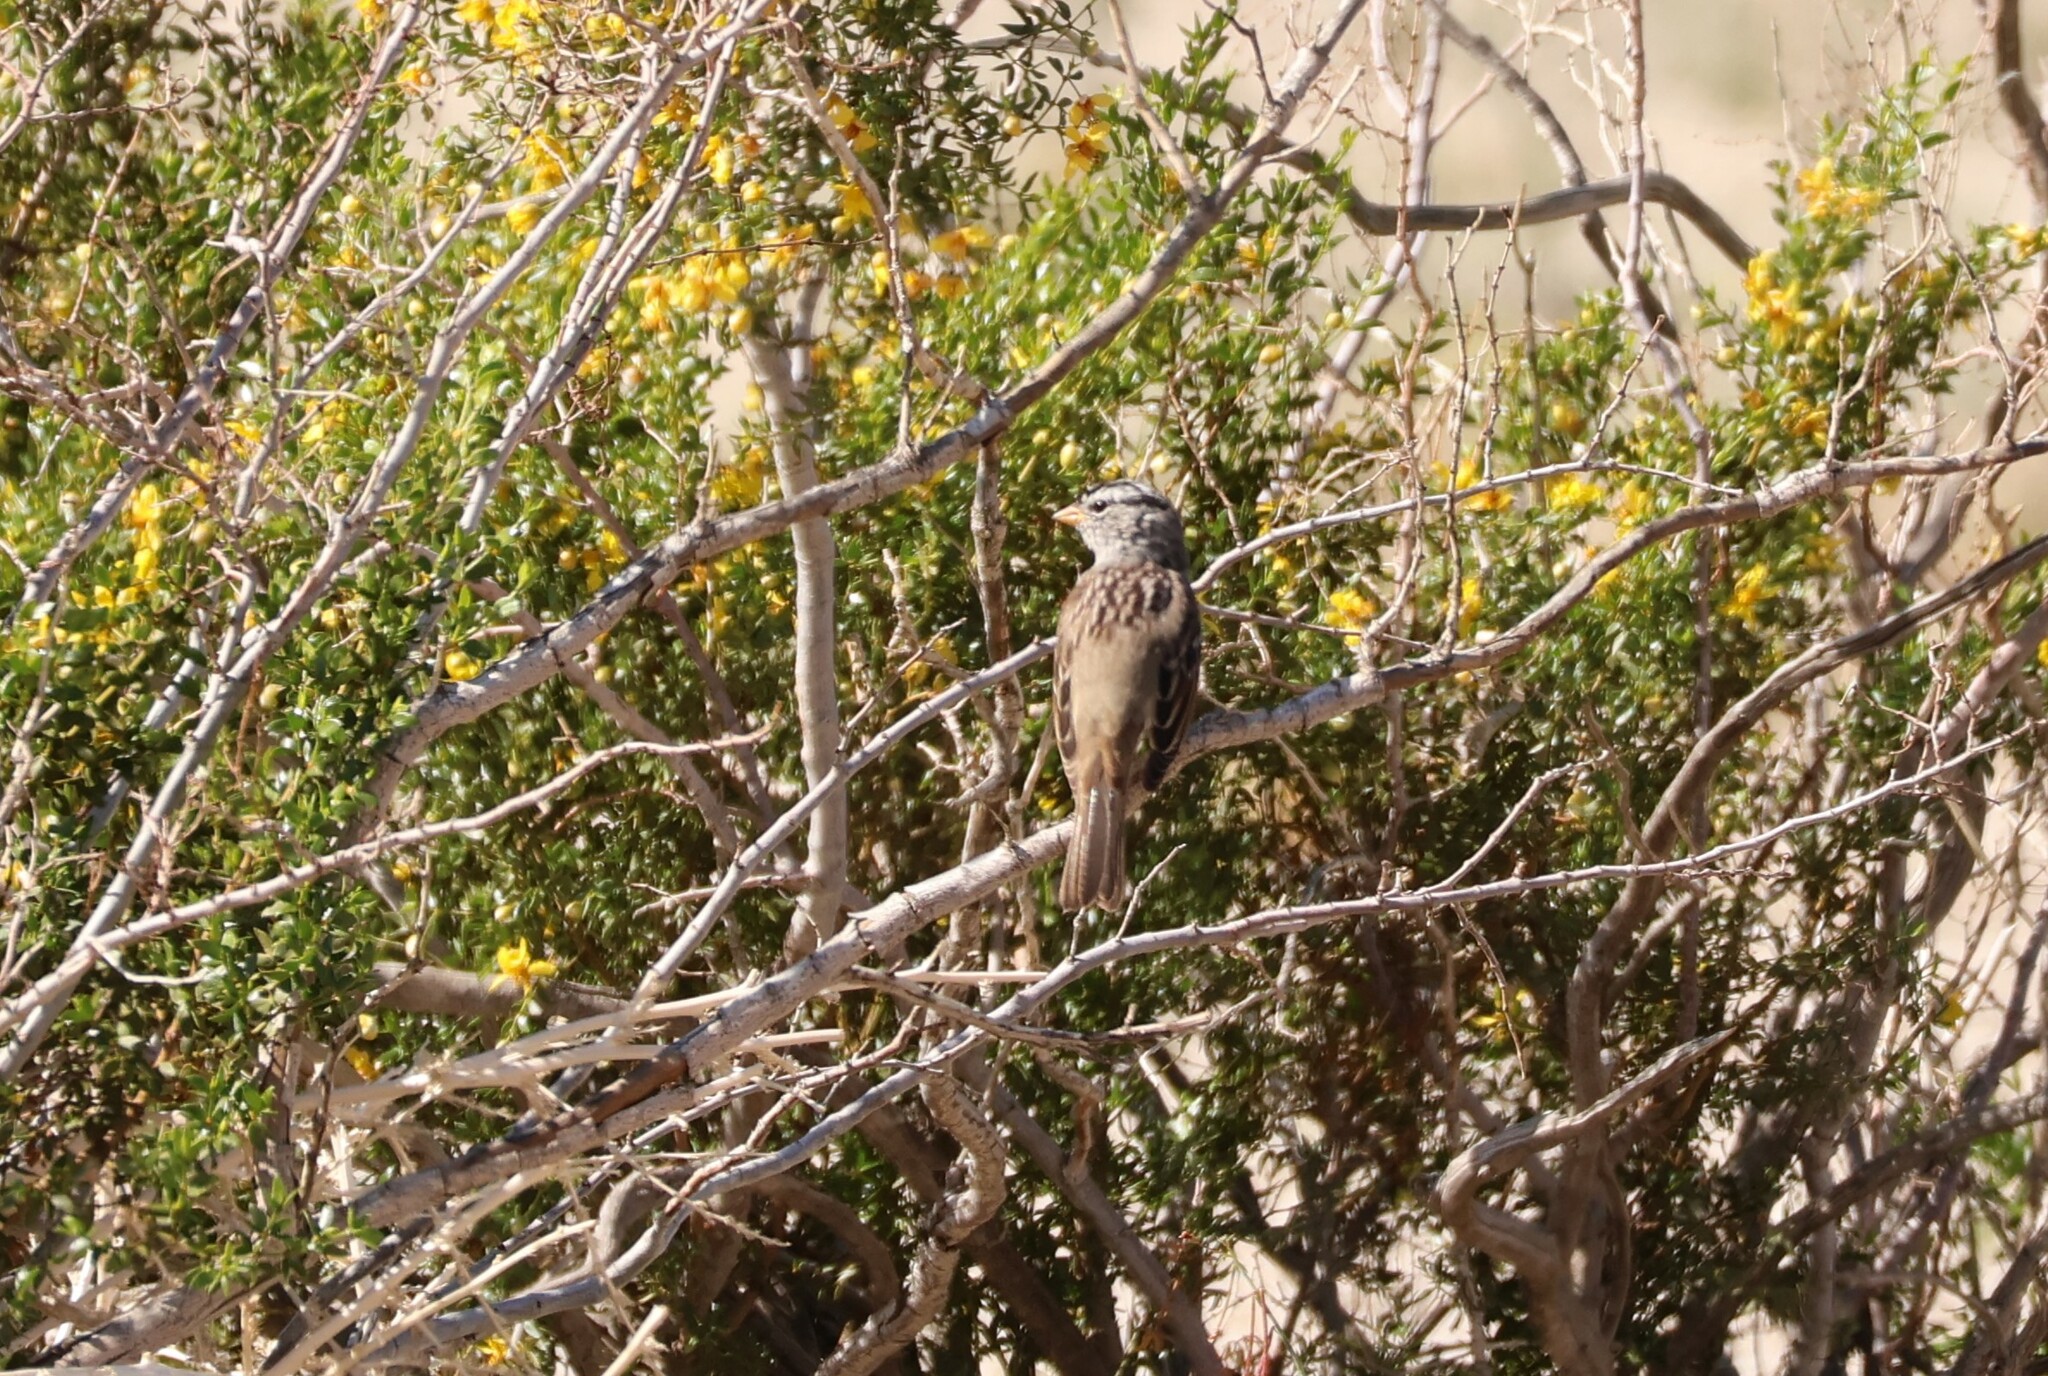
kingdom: Animalia
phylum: Chordata
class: Aves
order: Passeriformes
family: Passerellidae
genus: Zonotrichia
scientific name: Zonotrichia leucophrys
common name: White-crowned sparrow
